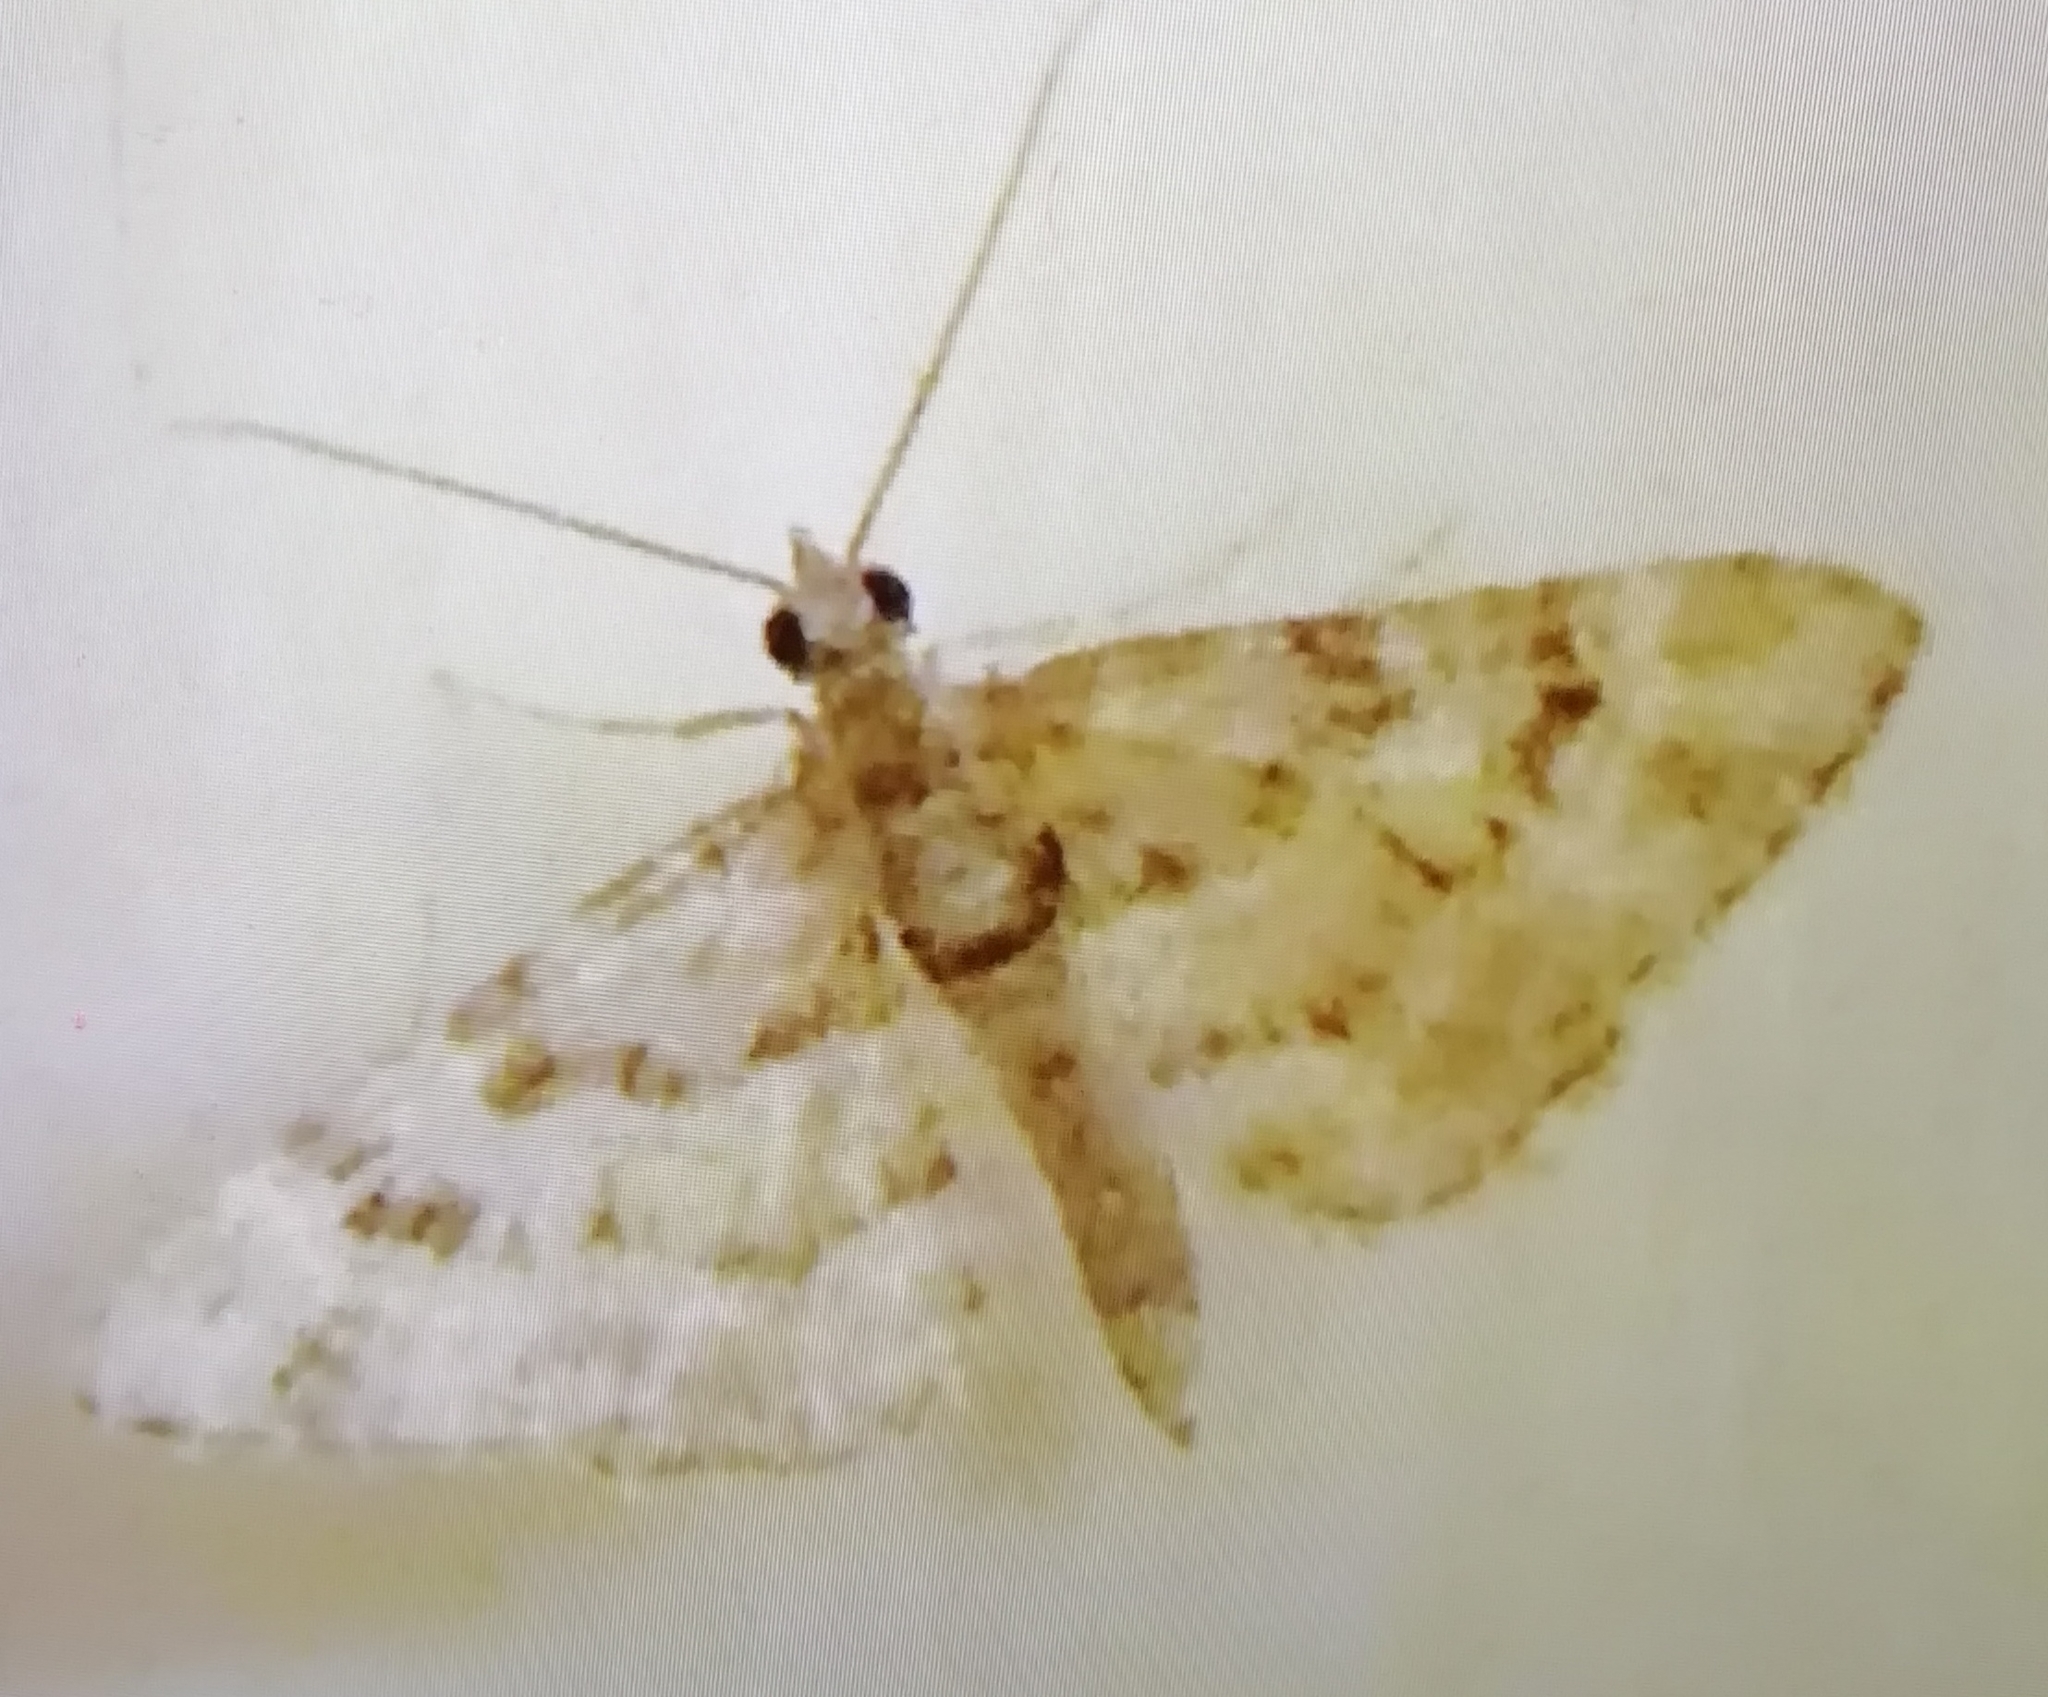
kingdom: Animalia
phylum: Arthropoda
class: Insecta
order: Lepidoptera
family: Geometridae
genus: Gymnoscelis
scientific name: Gymnoscelis rufifasciata
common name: Double-striped pug
